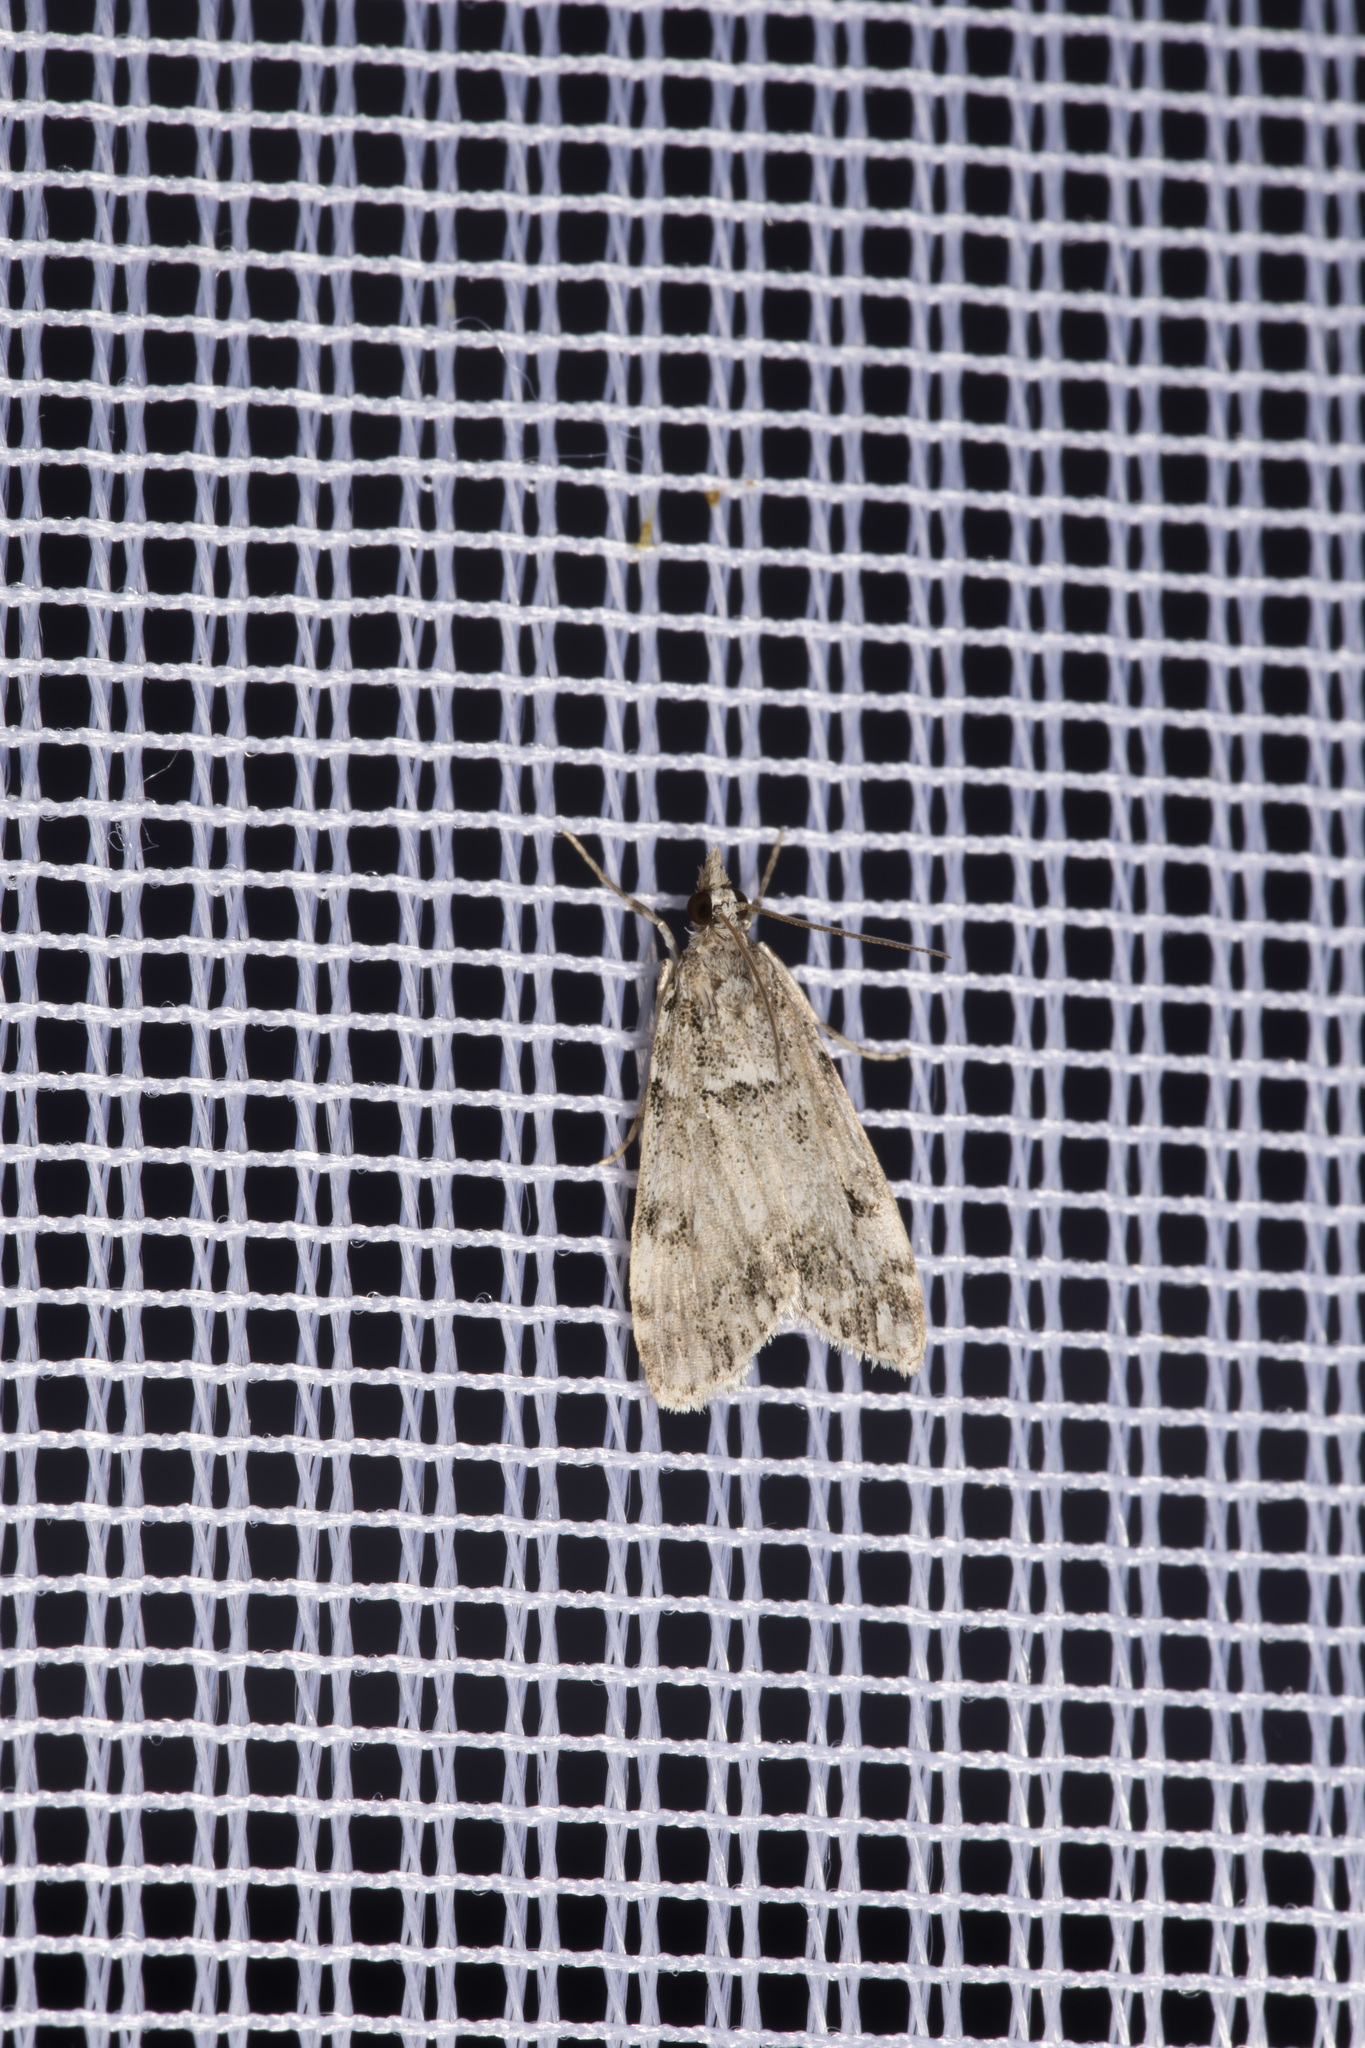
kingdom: Animalia
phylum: Arthropoda
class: Insecta
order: Lepidoptera
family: Crambidae
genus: Eudonia
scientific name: Eudonia lacustrata
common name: Little grey
